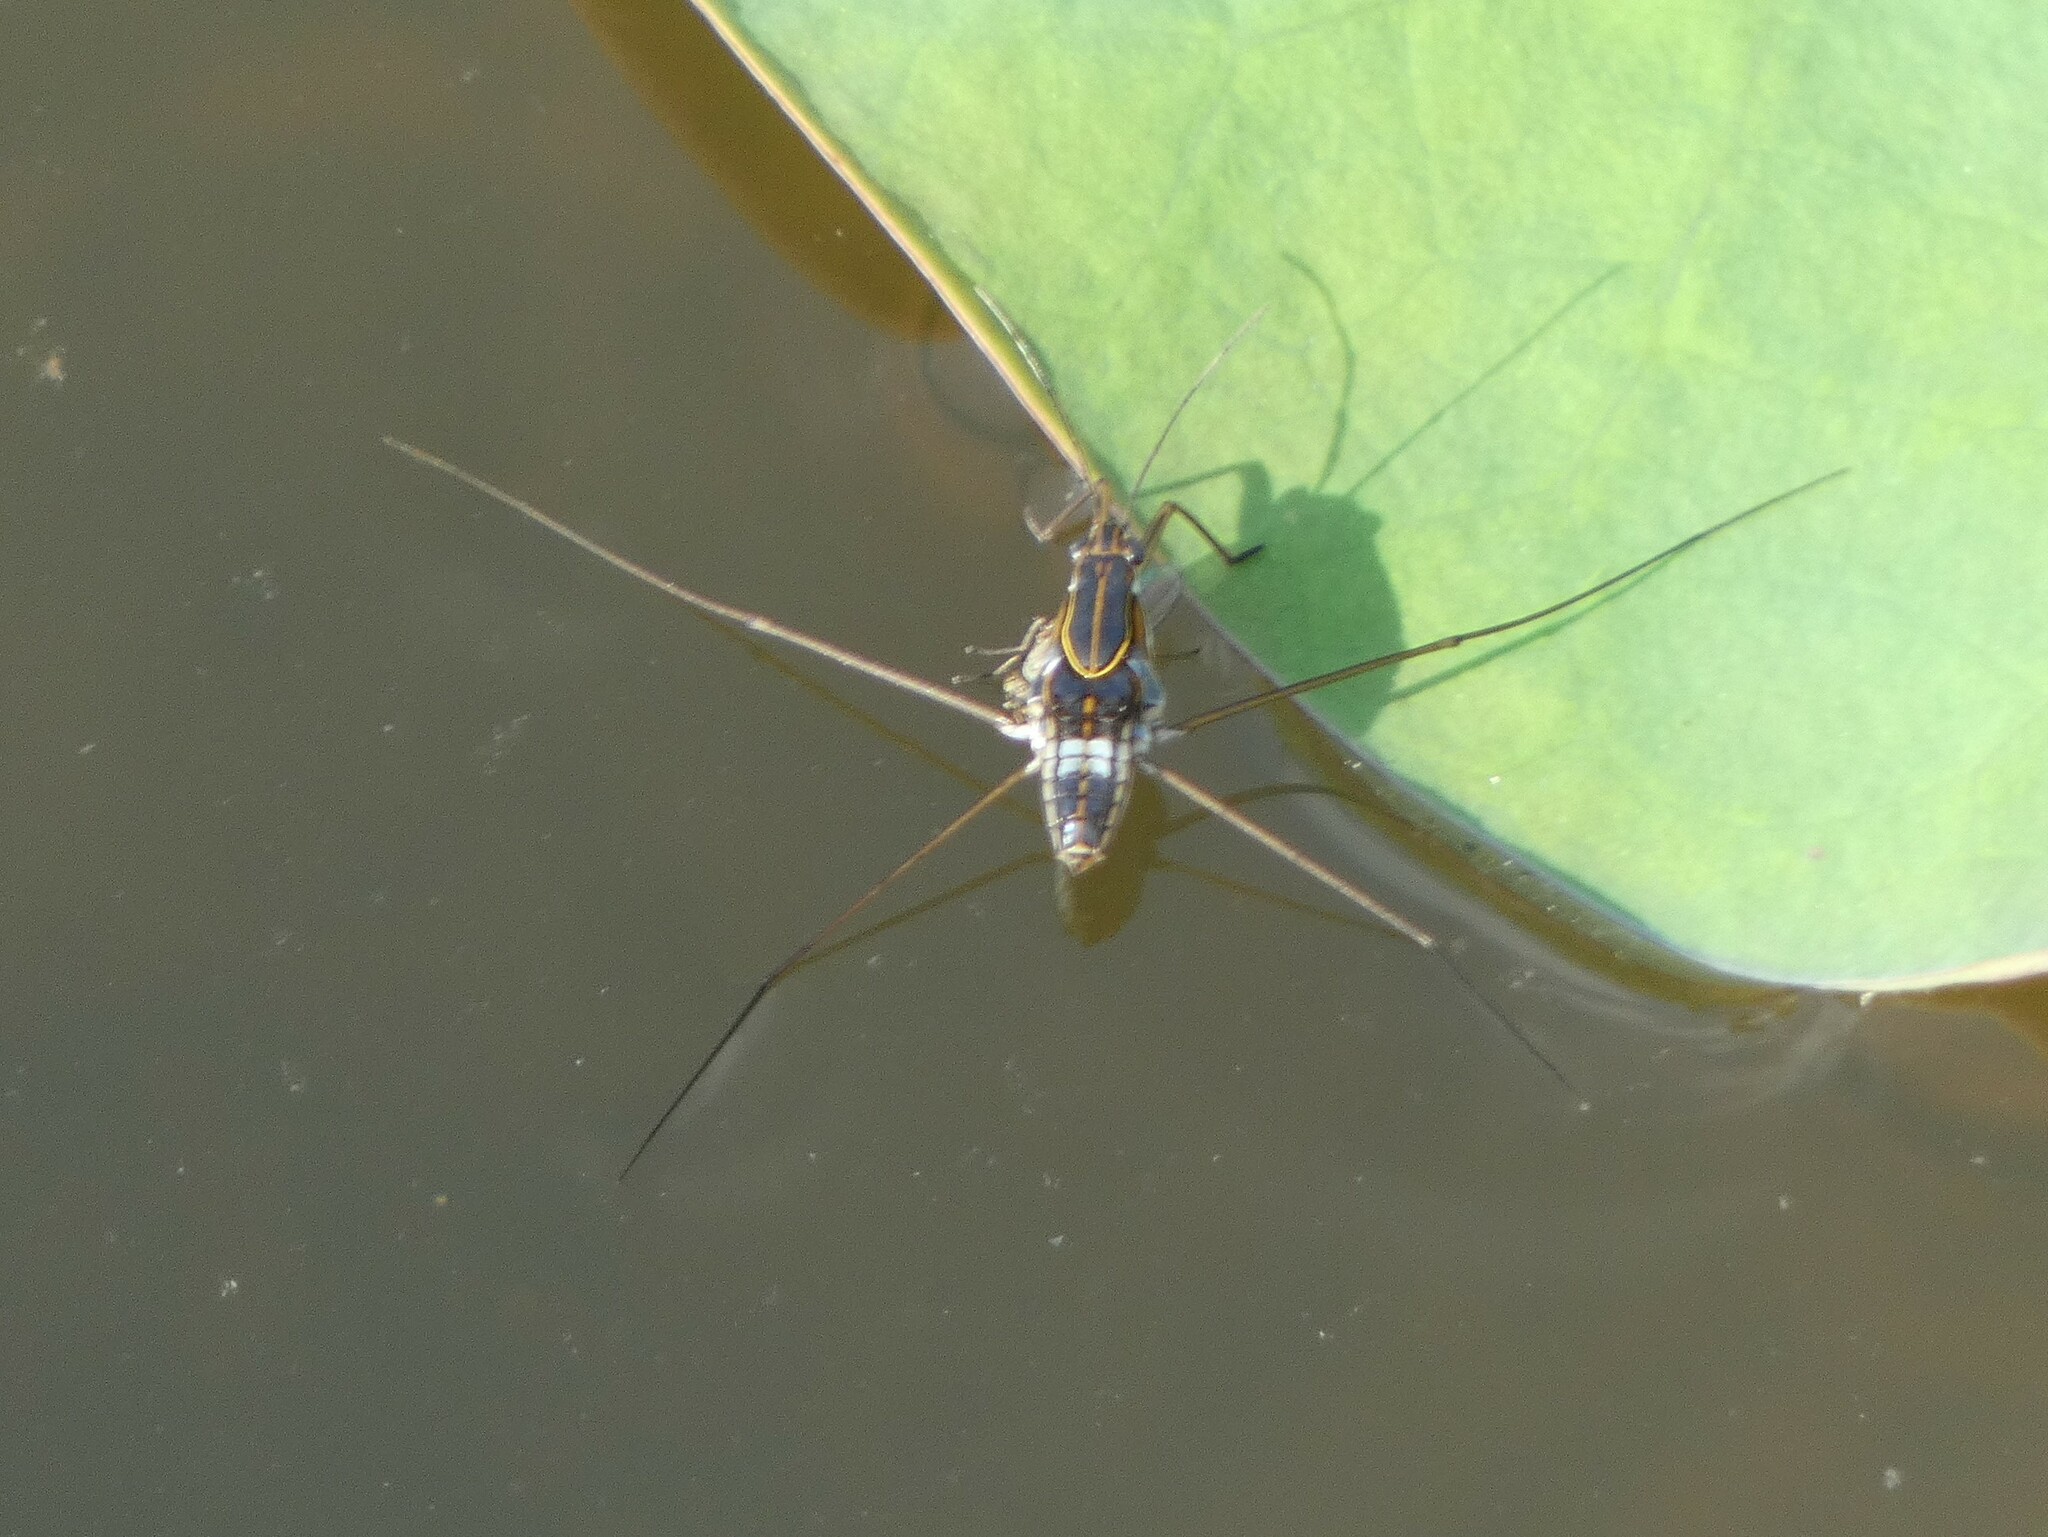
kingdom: Animalia
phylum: Arthropoda
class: Insecta
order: Hemiptera
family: Gerridae
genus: Limnogonus
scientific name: Limnogonus fossarum
